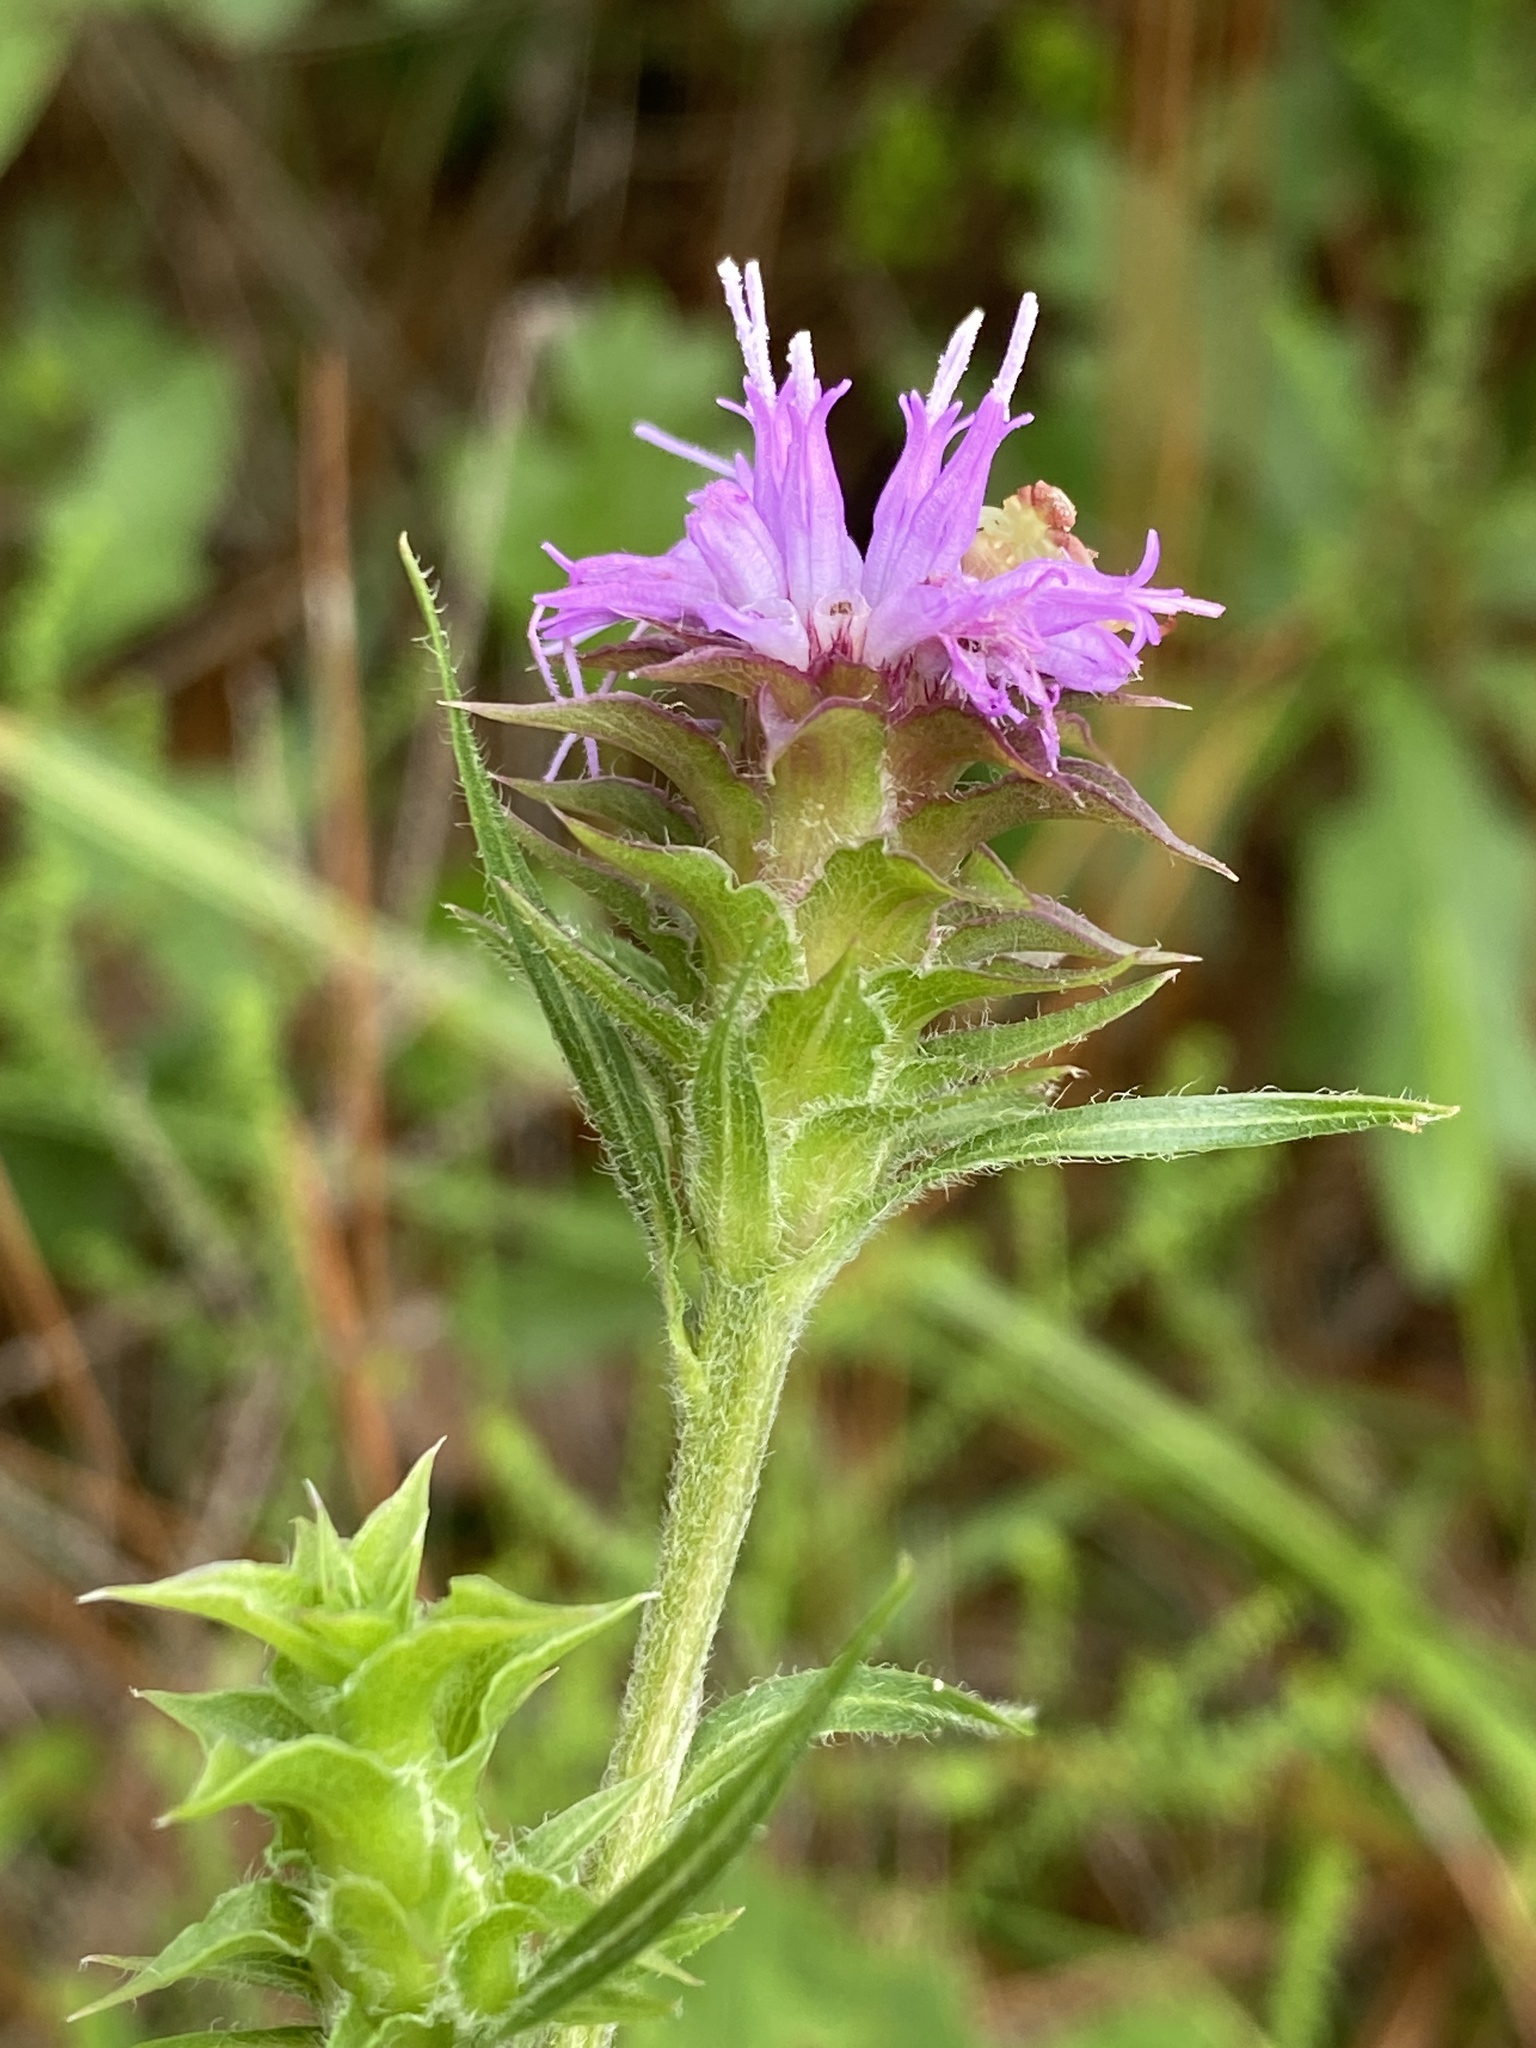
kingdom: Plantae
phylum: Tracheophyta
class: Magnoliopsida
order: Asterales
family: Asteraceae
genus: Liatris
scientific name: Liatris squarrosa
